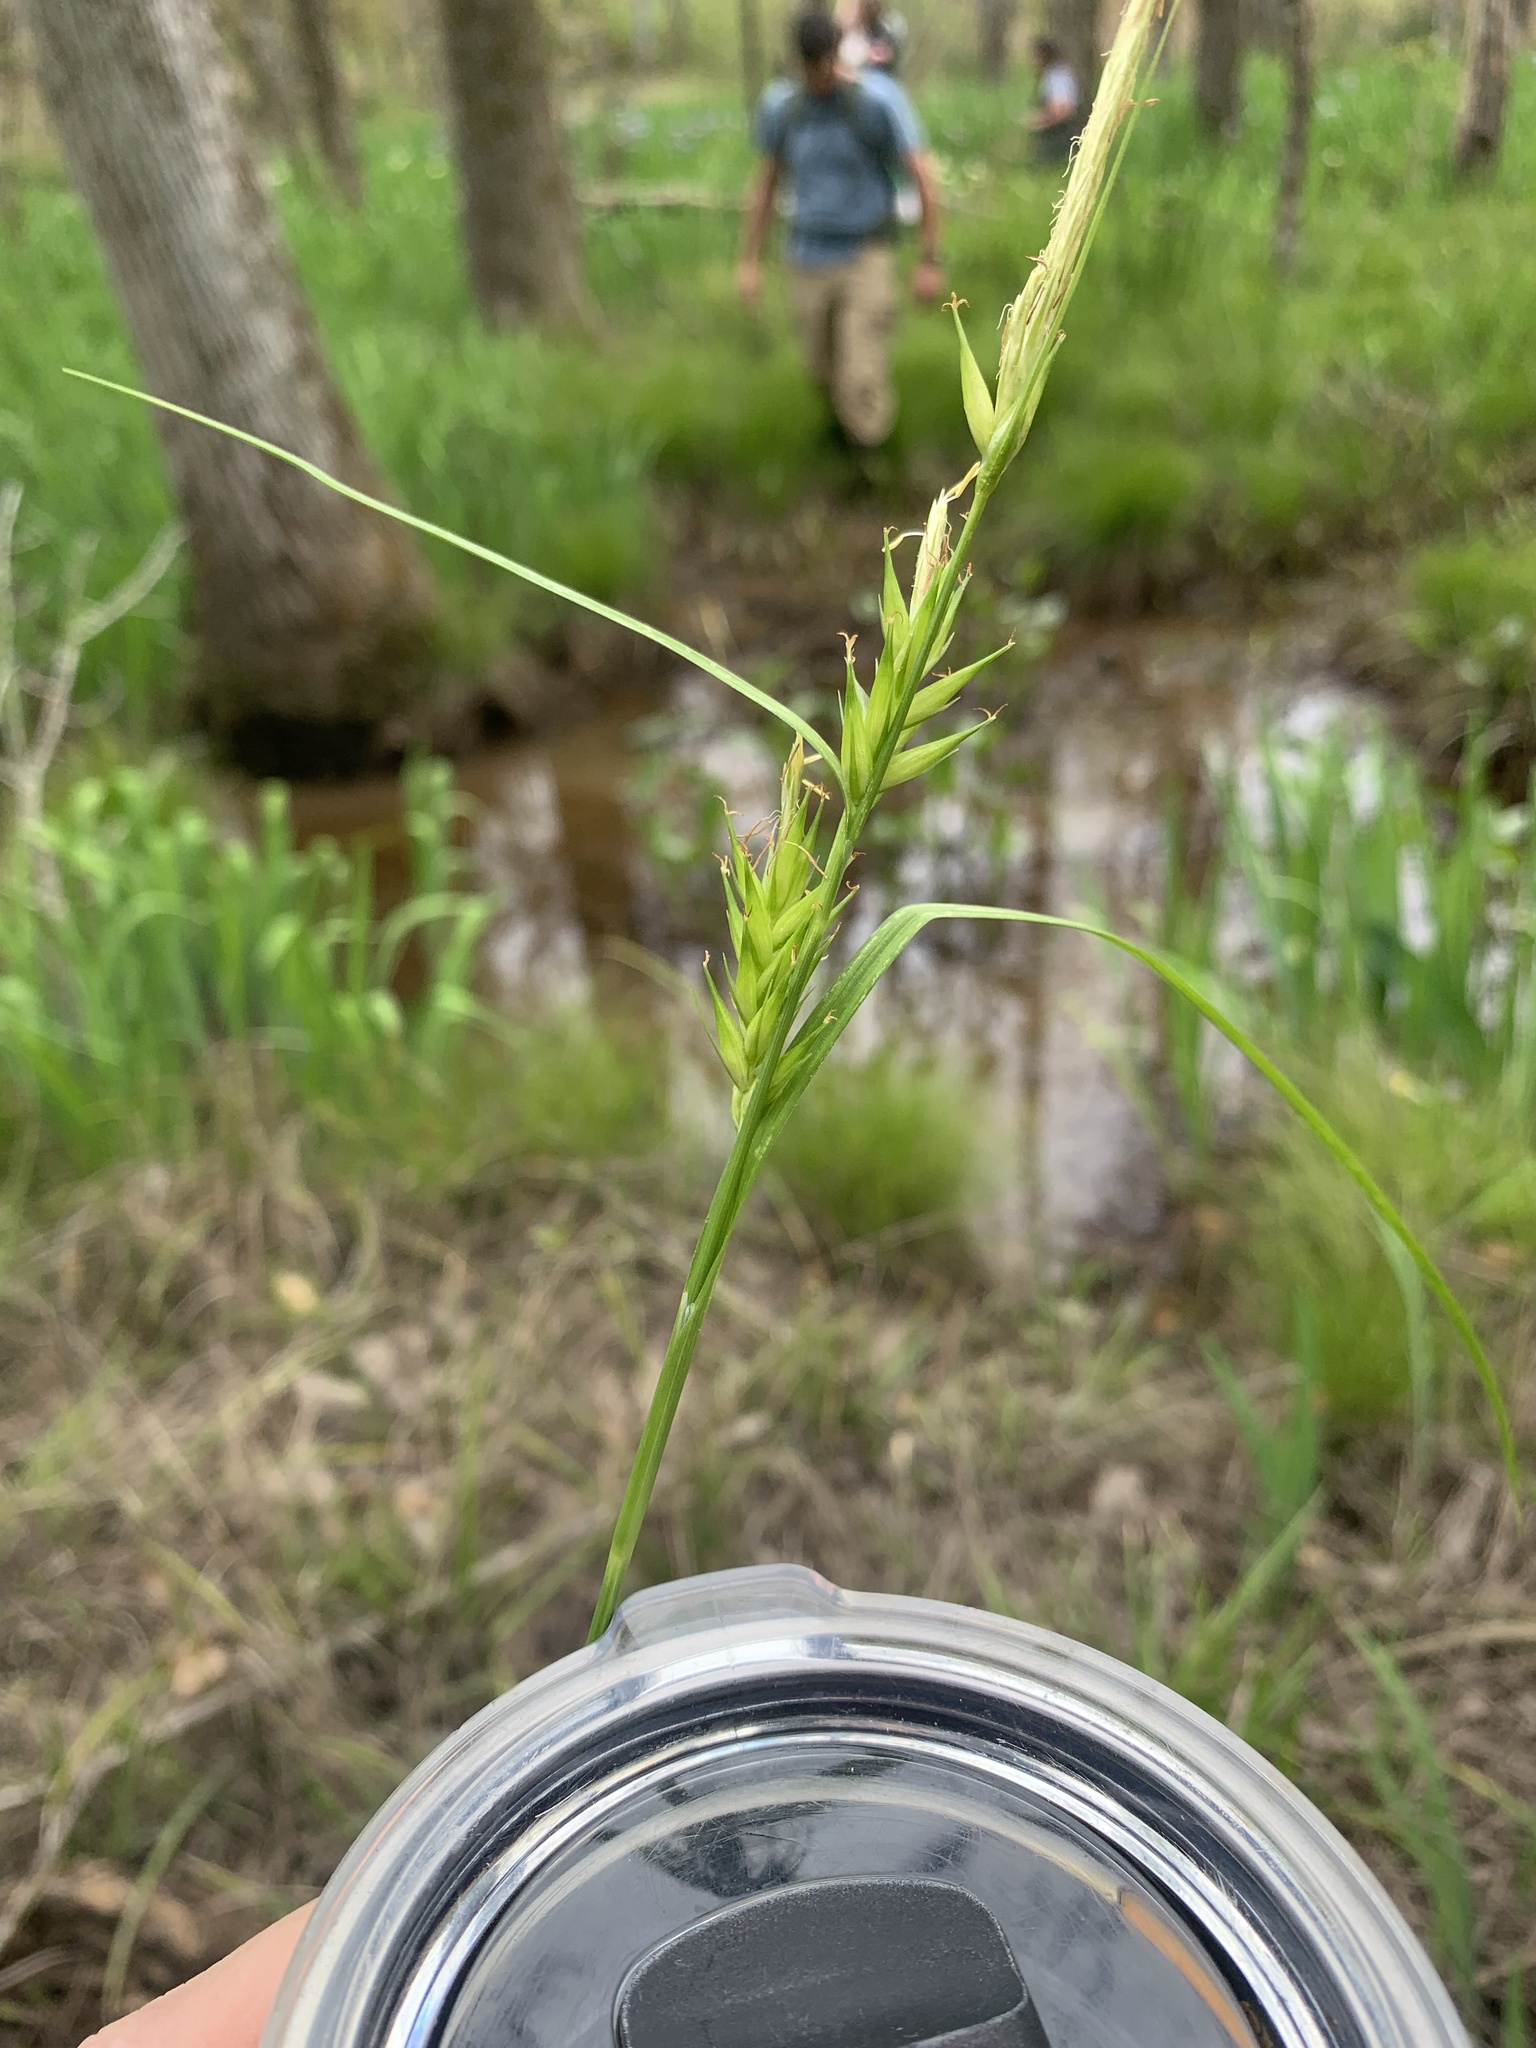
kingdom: Plantae
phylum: Tracheophyta
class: Liliopsida
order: Poales
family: Cyperaceae
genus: Carex
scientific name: Carex lonchocarpa
